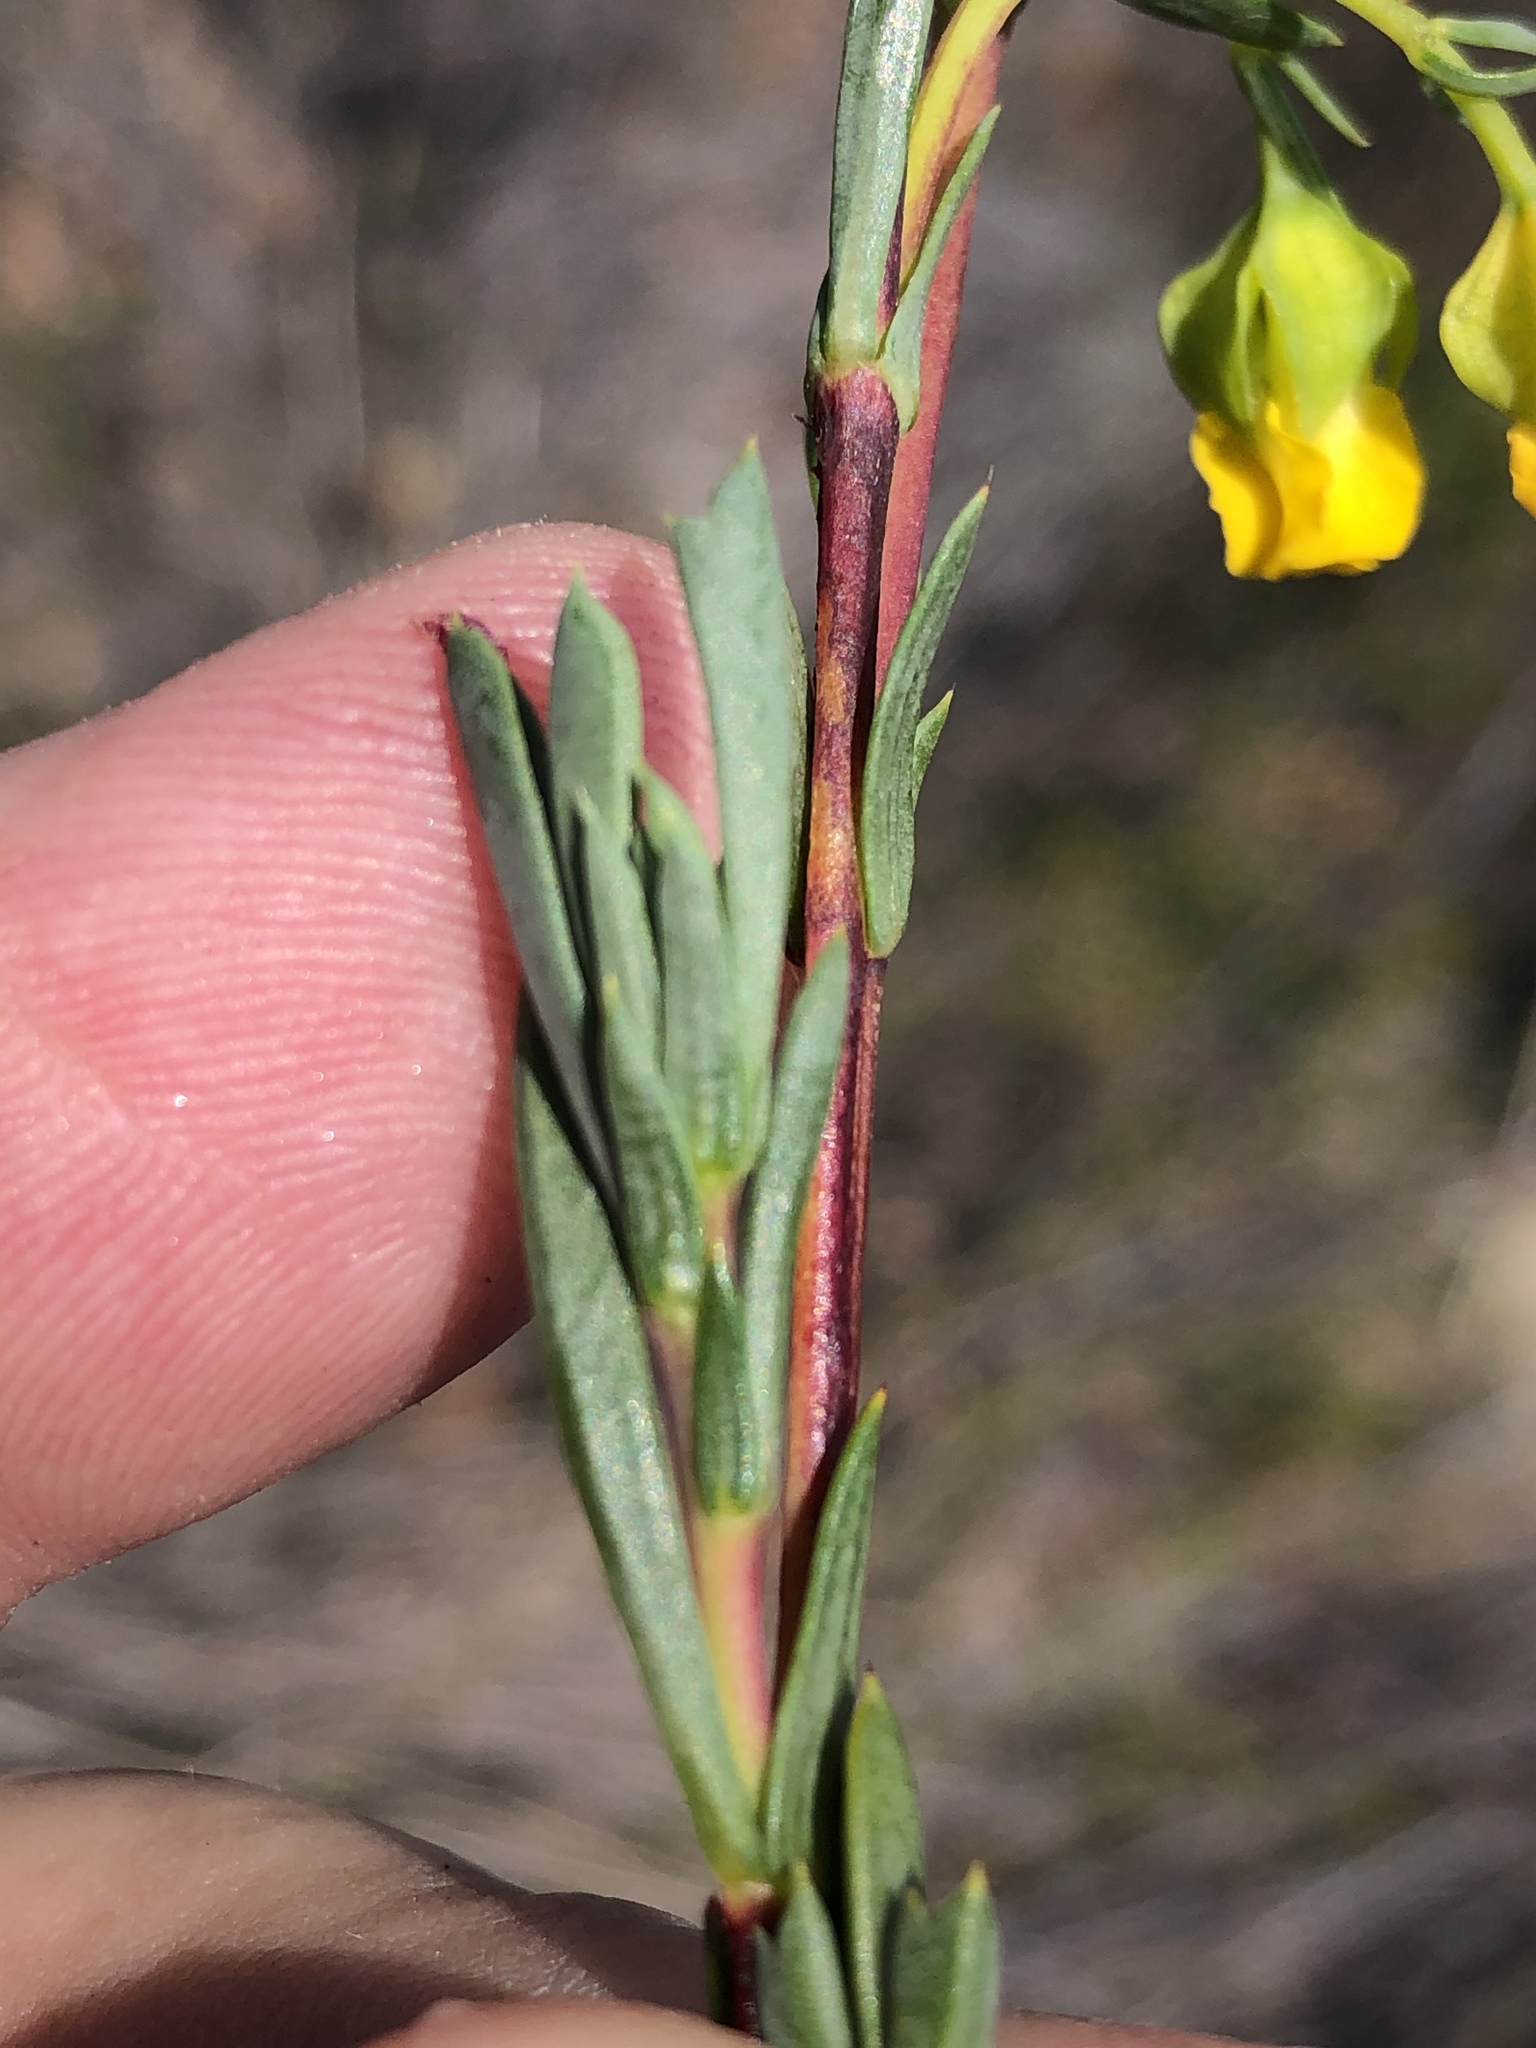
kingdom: Plantae
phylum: Tracheophyta
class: Magnoliopsida
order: Malvales
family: Malvaceae
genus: Hermannia
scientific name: Hermannia
